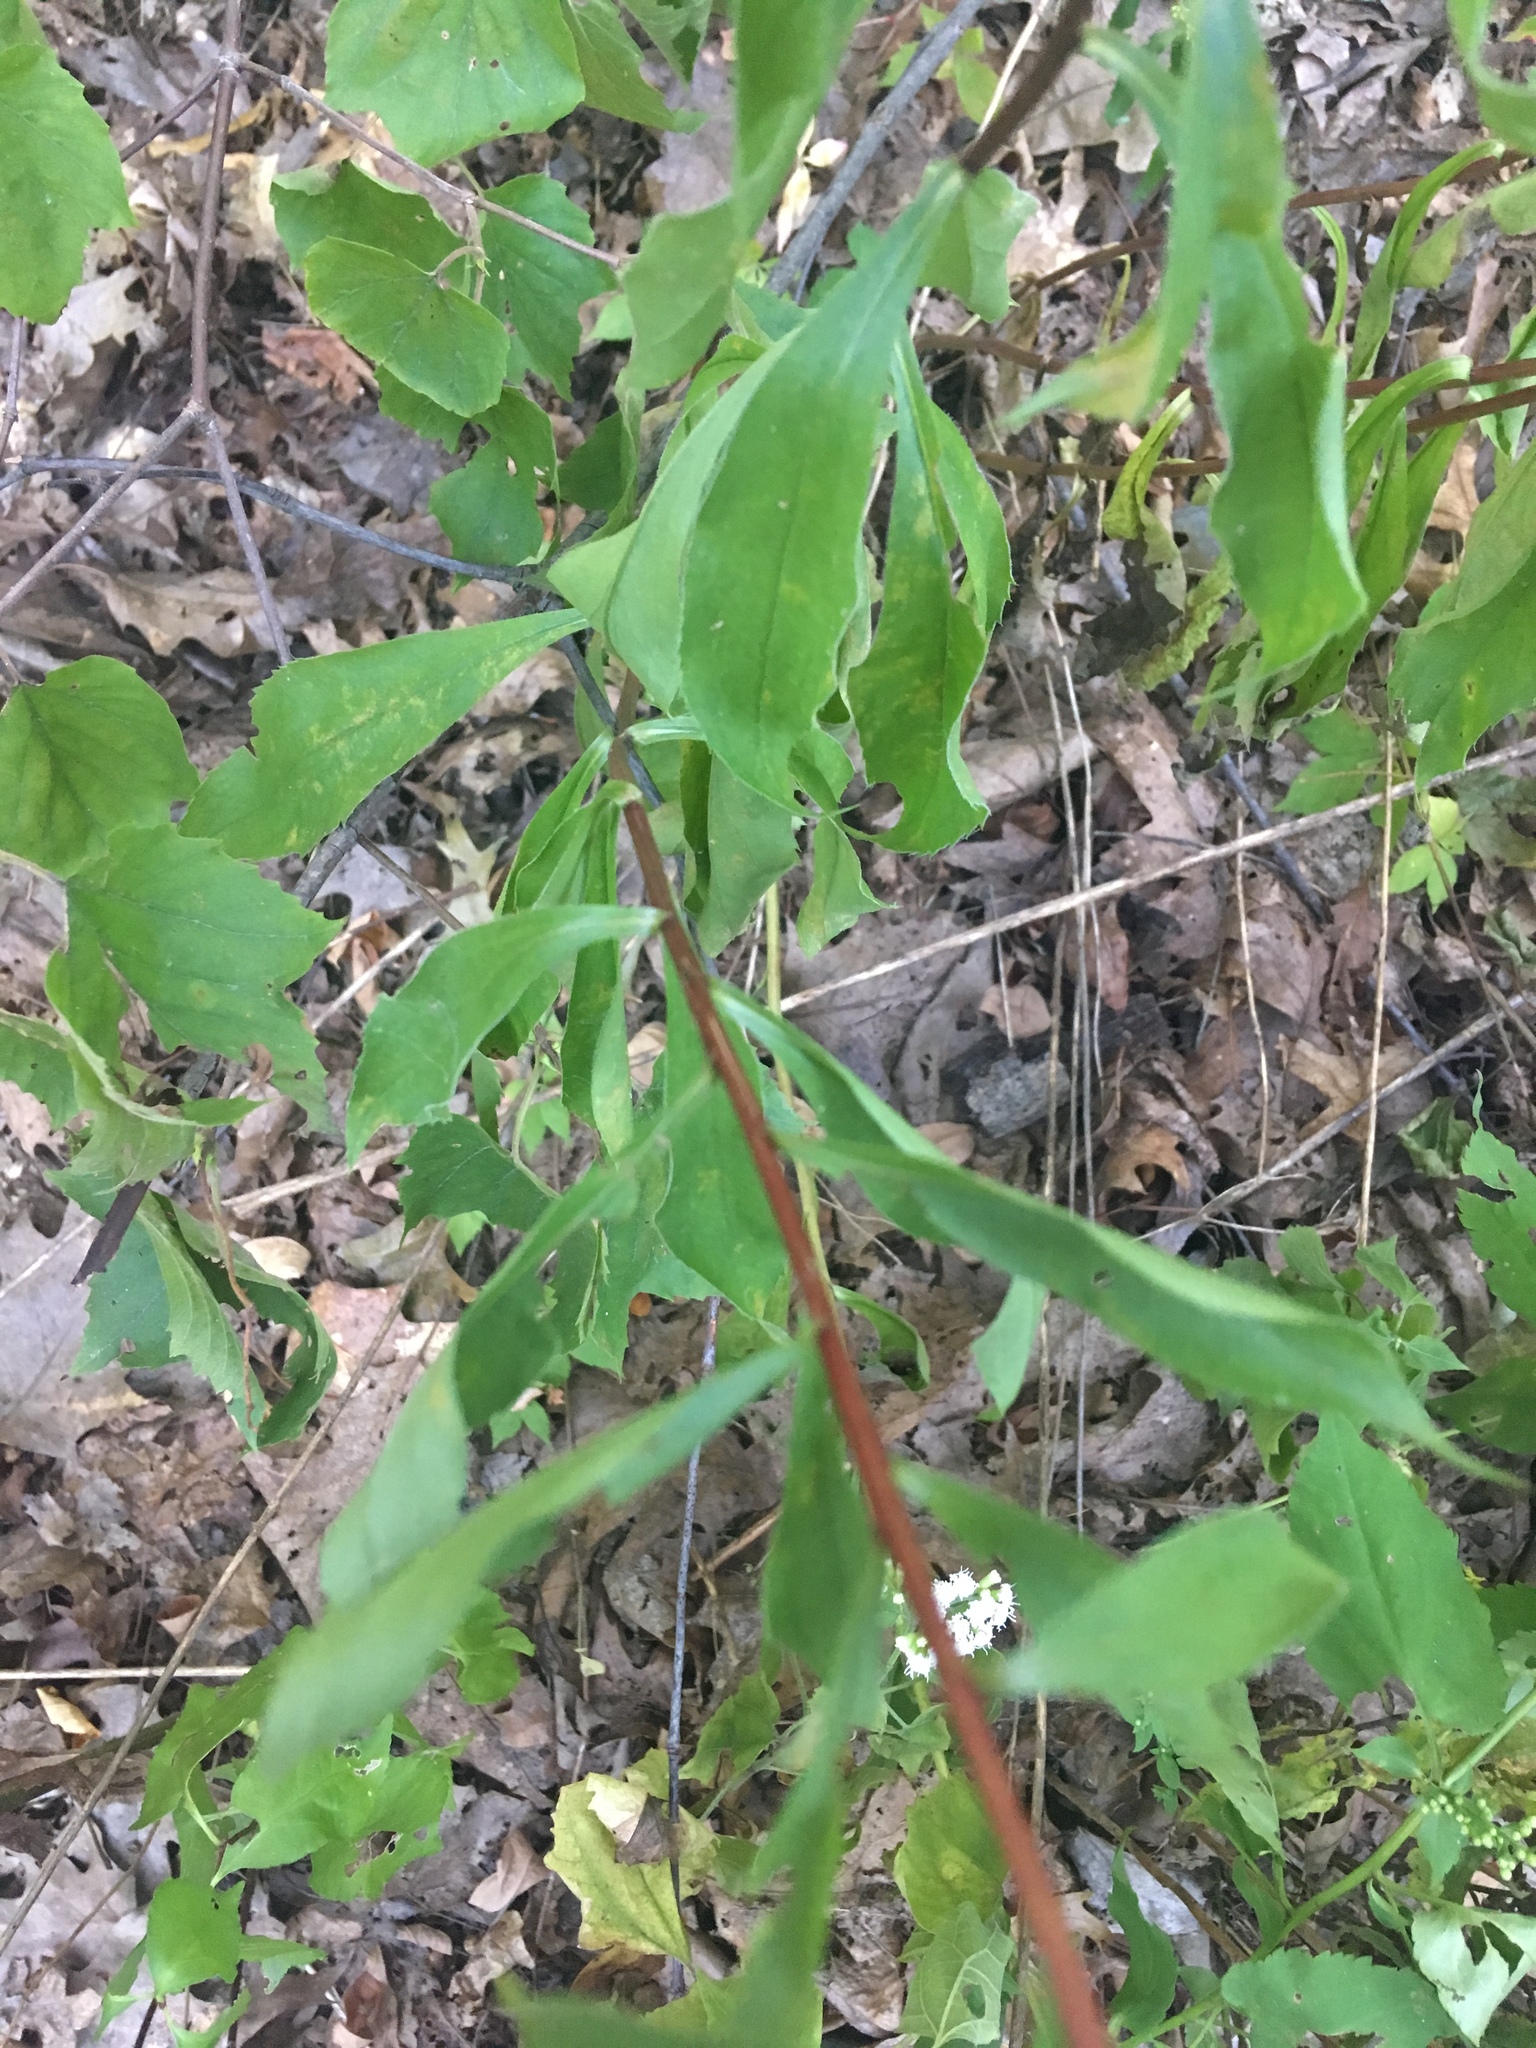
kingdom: Plantae
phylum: Tracheophyta
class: Magnoliopsida
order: Asterales
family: Asteraceae
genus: Solidago
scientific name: Solidago juncea
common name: Early goldenrod
